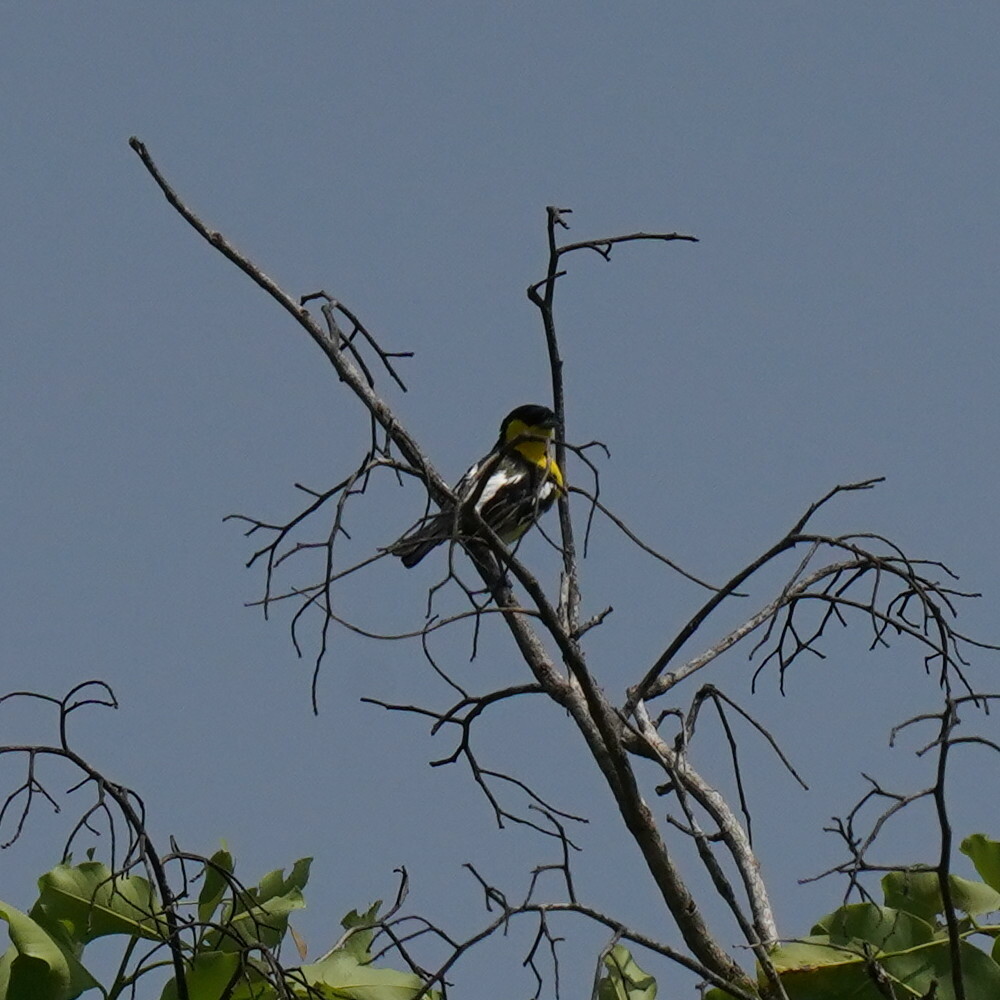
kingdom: Animalia
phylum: Chordata
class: Aves
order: Passeriformes
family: Aegithinidae
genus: Aegithina
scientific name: Aegithina tiphia
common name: Common iora
